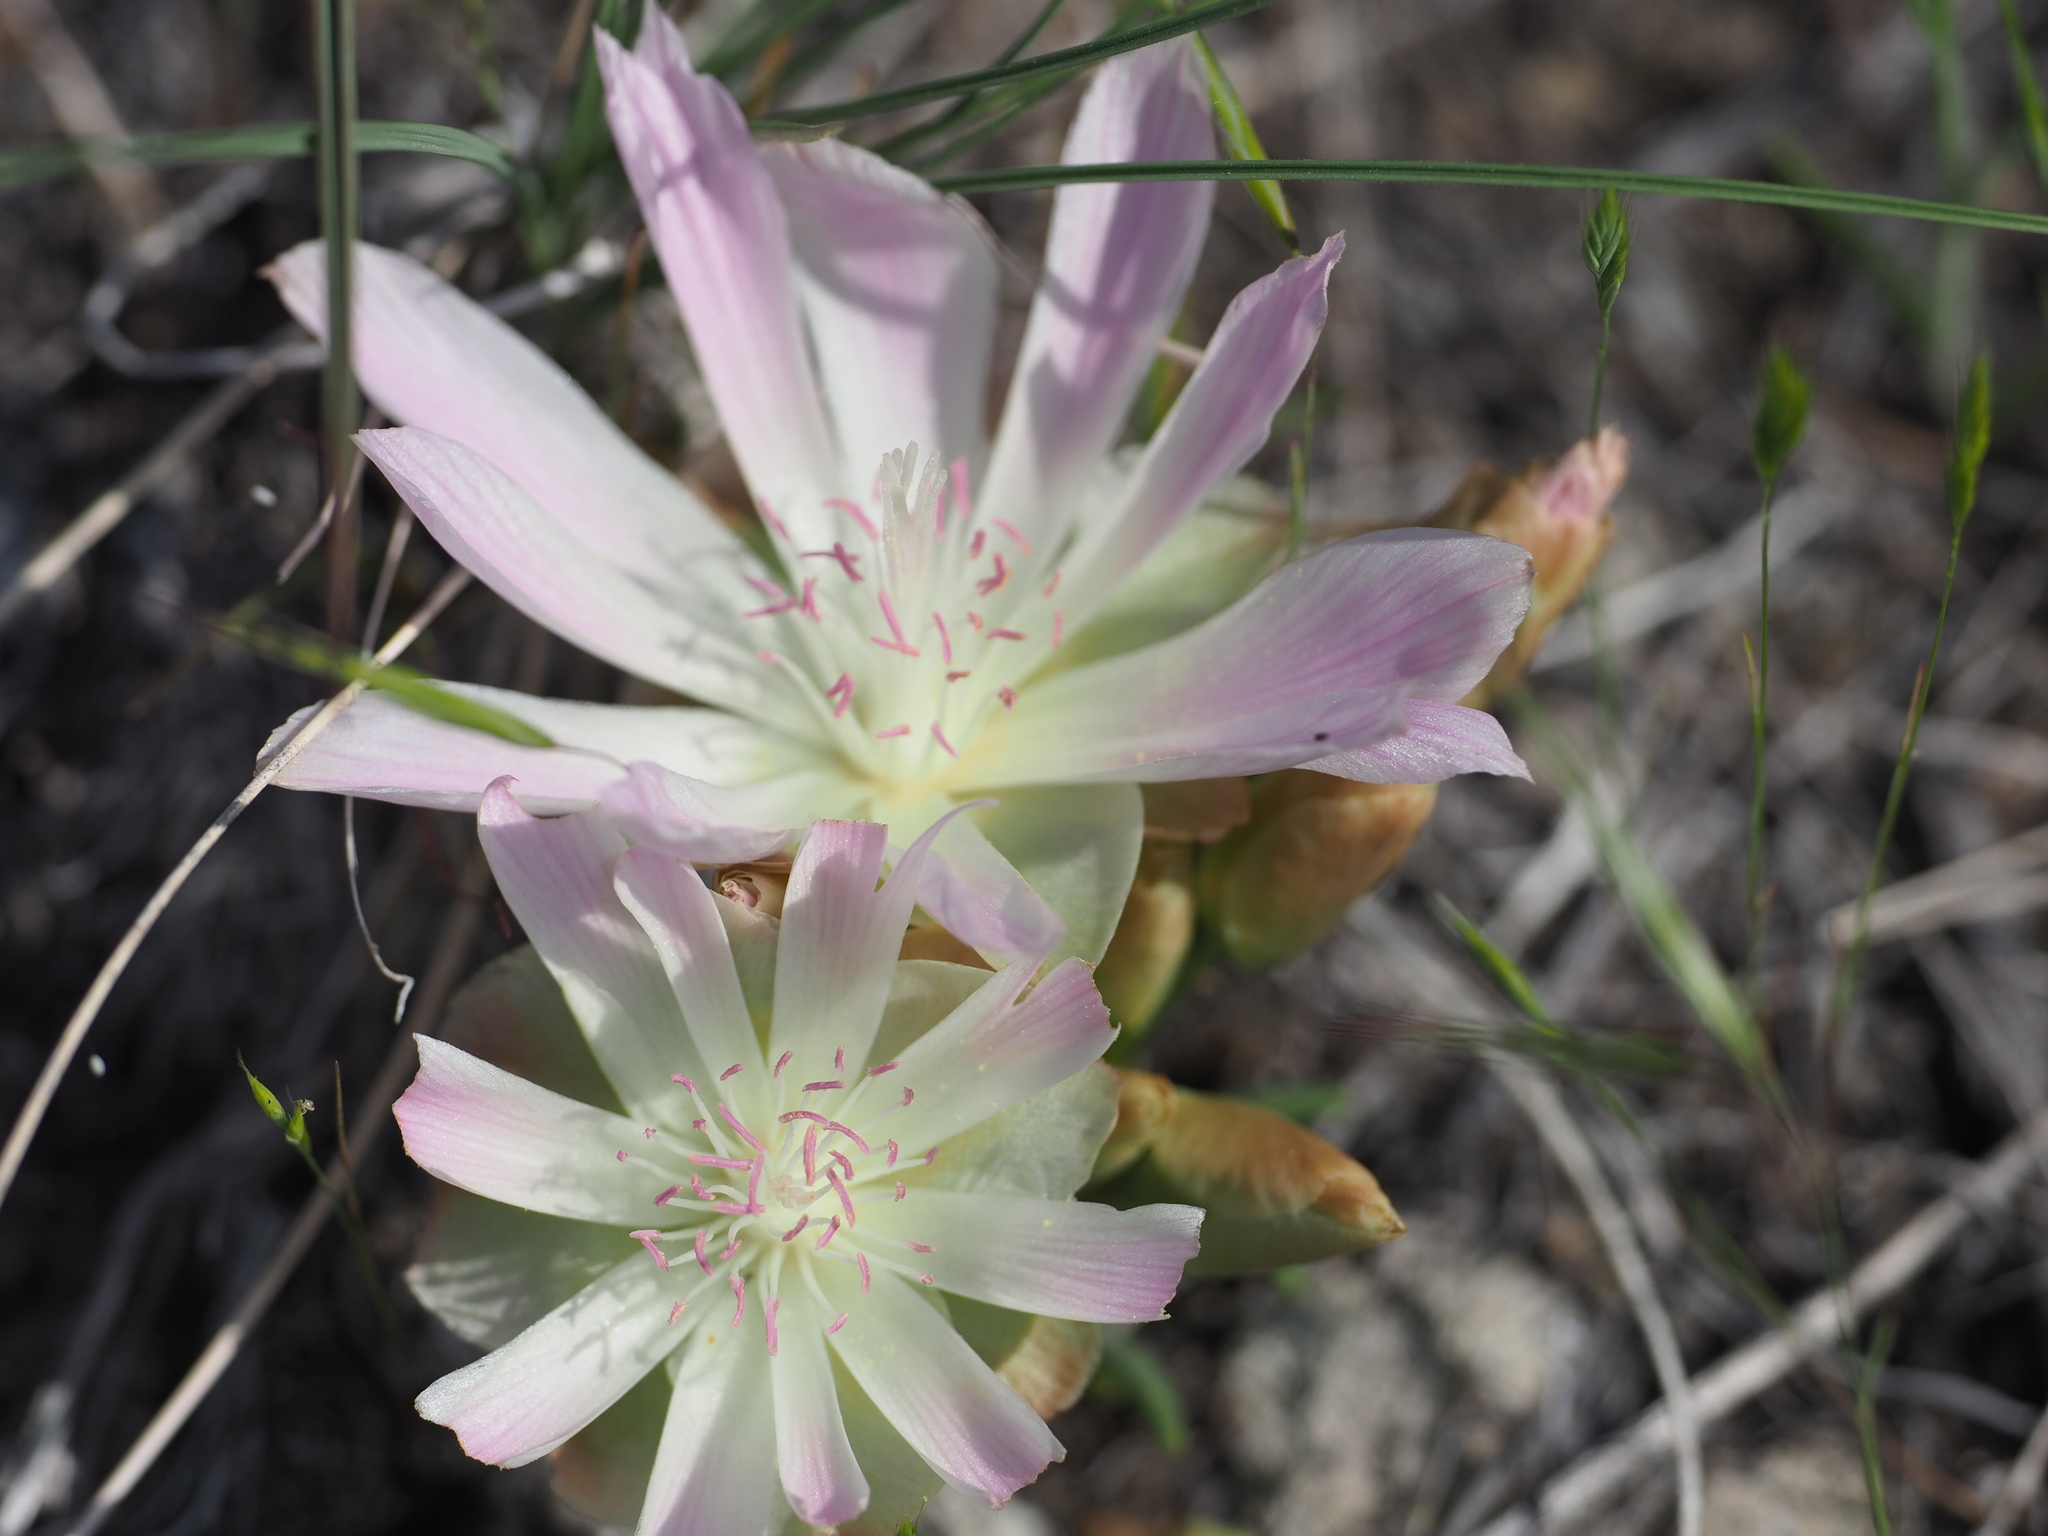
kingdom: Plantae
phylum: Tracheophyta
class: Magnoliopsida
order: Caryophyllales
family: Montiaceae
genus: Lewisia
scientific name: Lewisia rediviva
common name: Bitter-root
